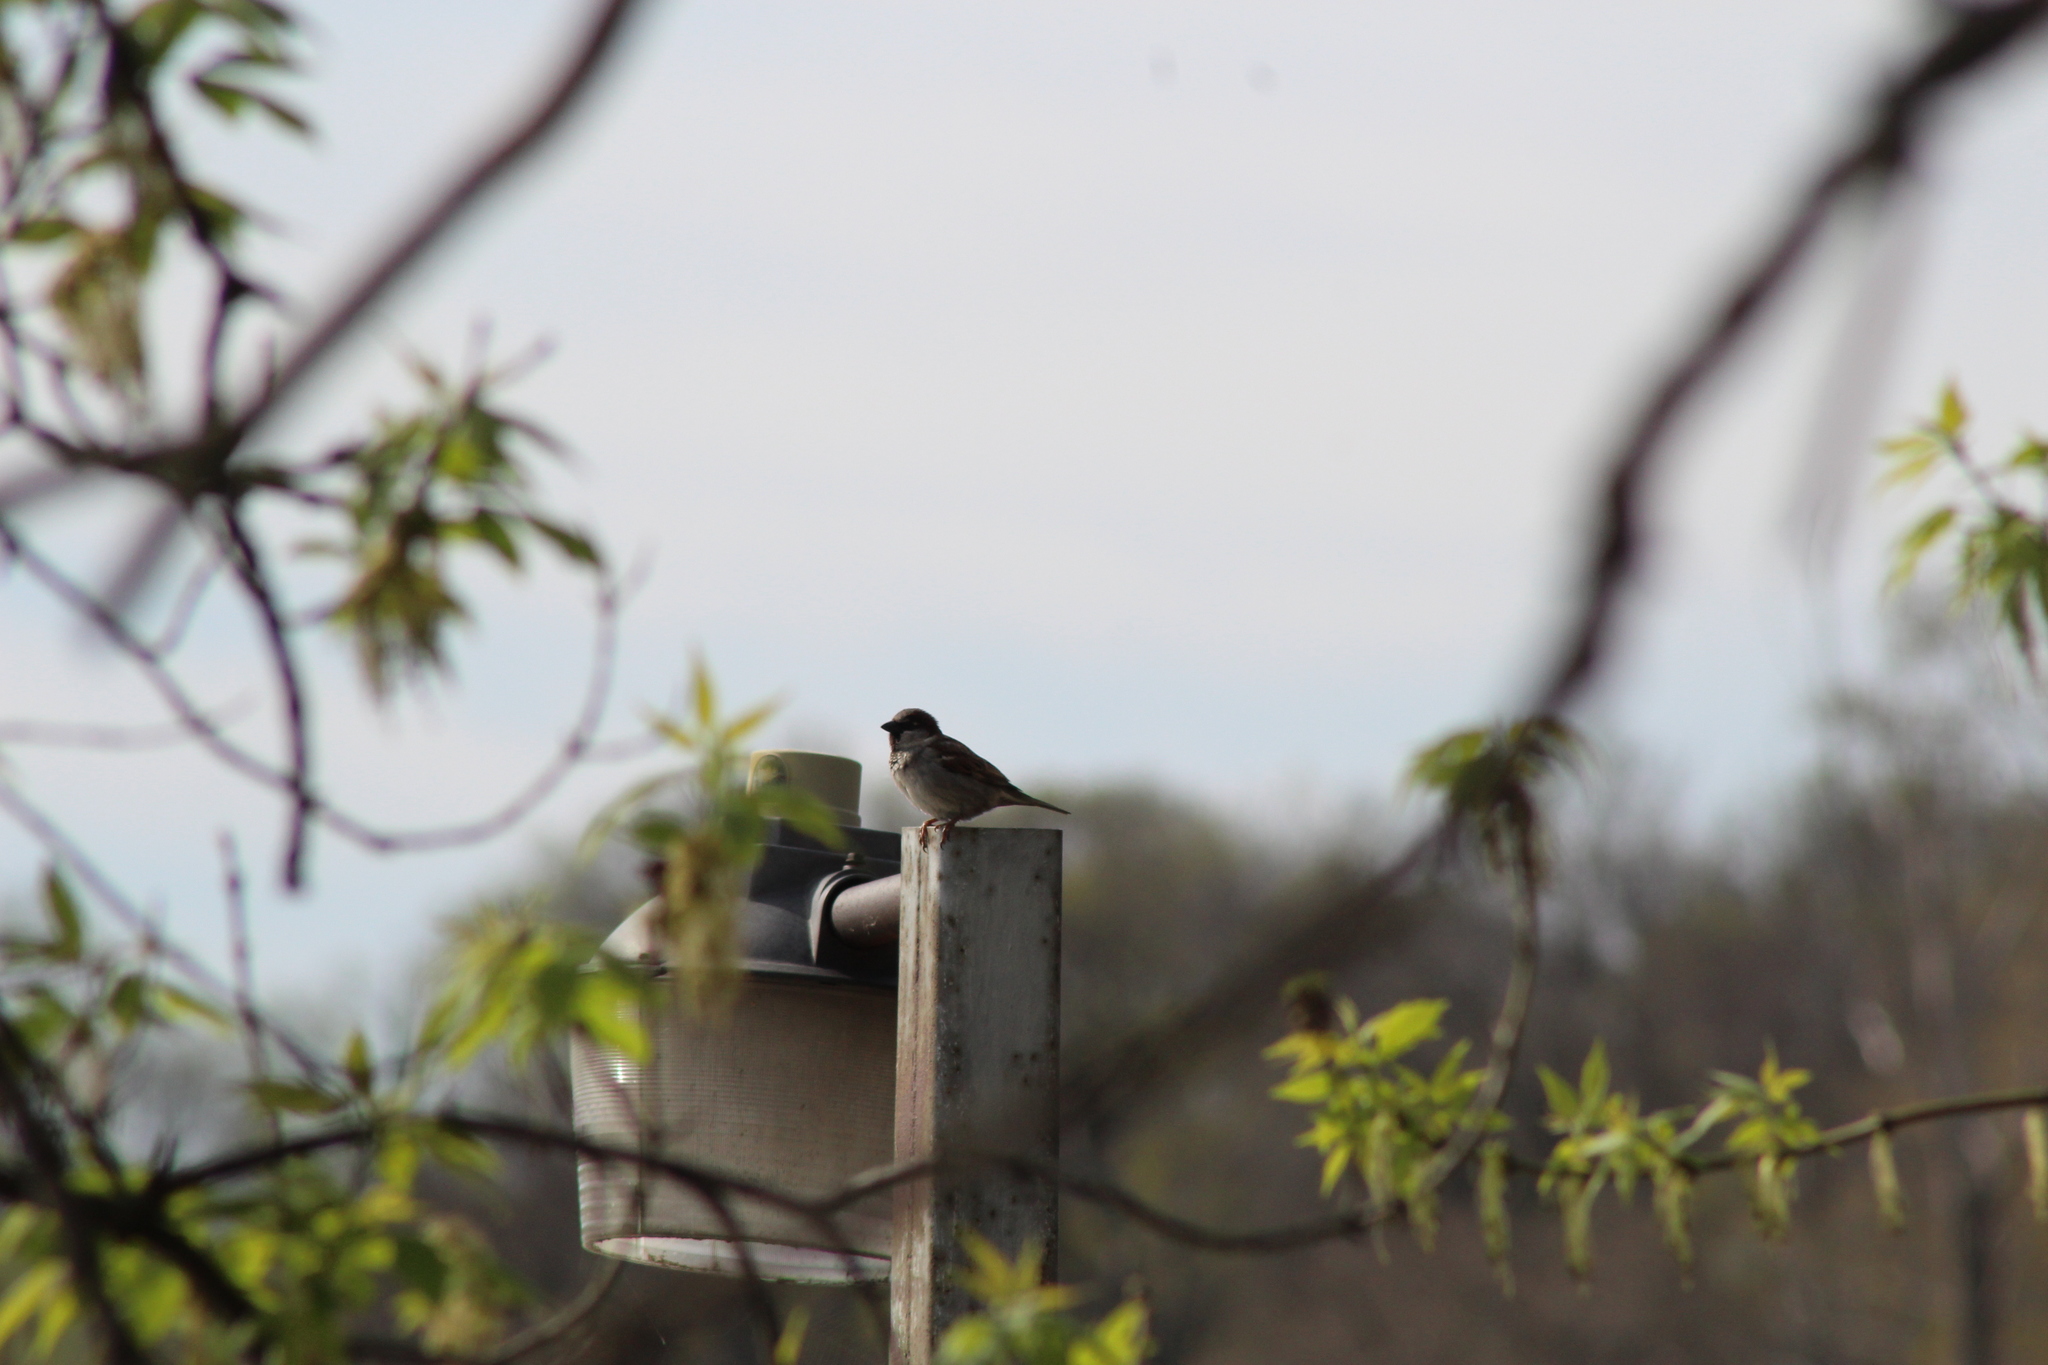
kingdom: Animalia
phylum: Chordata
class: Aves
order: Passeriformes
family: Passeridae
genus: Passer
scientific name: Passer domesticus
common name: House sparrow
